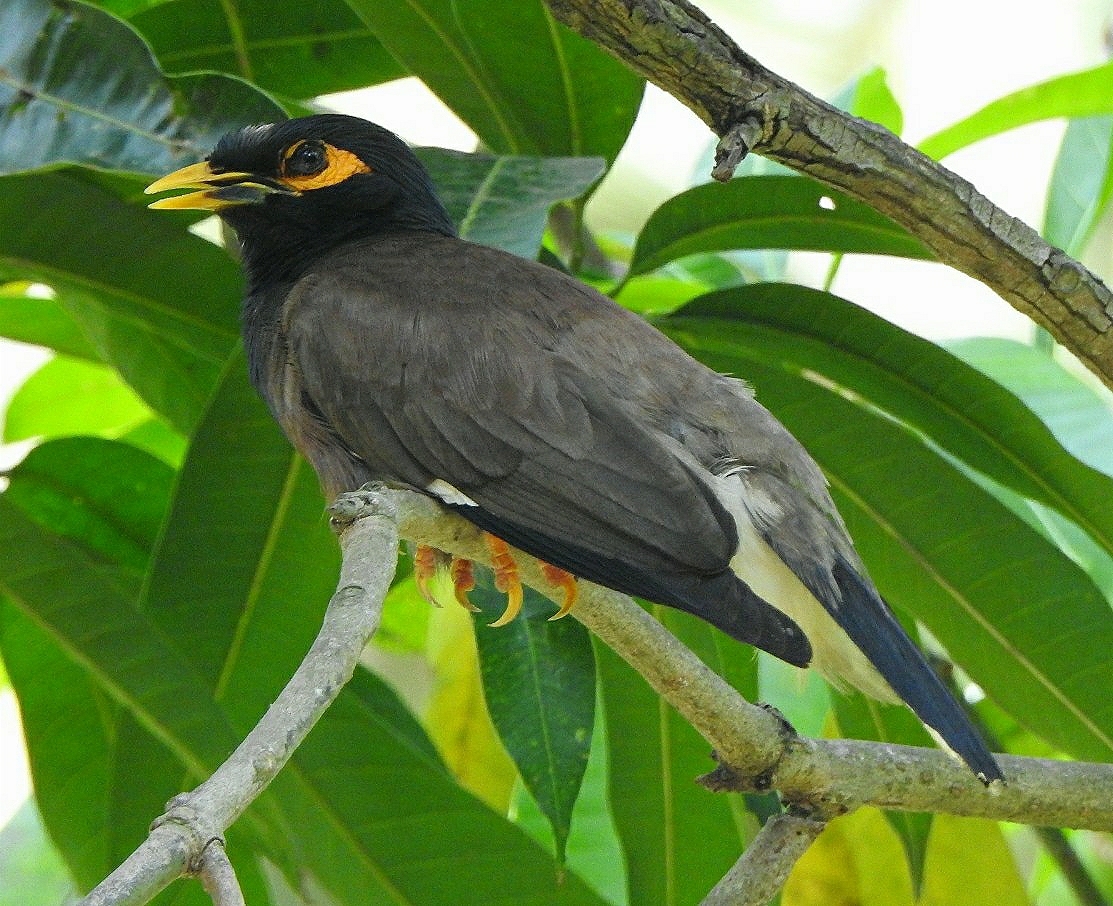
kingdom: Animalia
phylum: Chordata
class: Aves
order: Passeriformes
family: Sturnidae
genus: Acridotheres
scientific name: Acridotheres tristis
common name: Common myna
